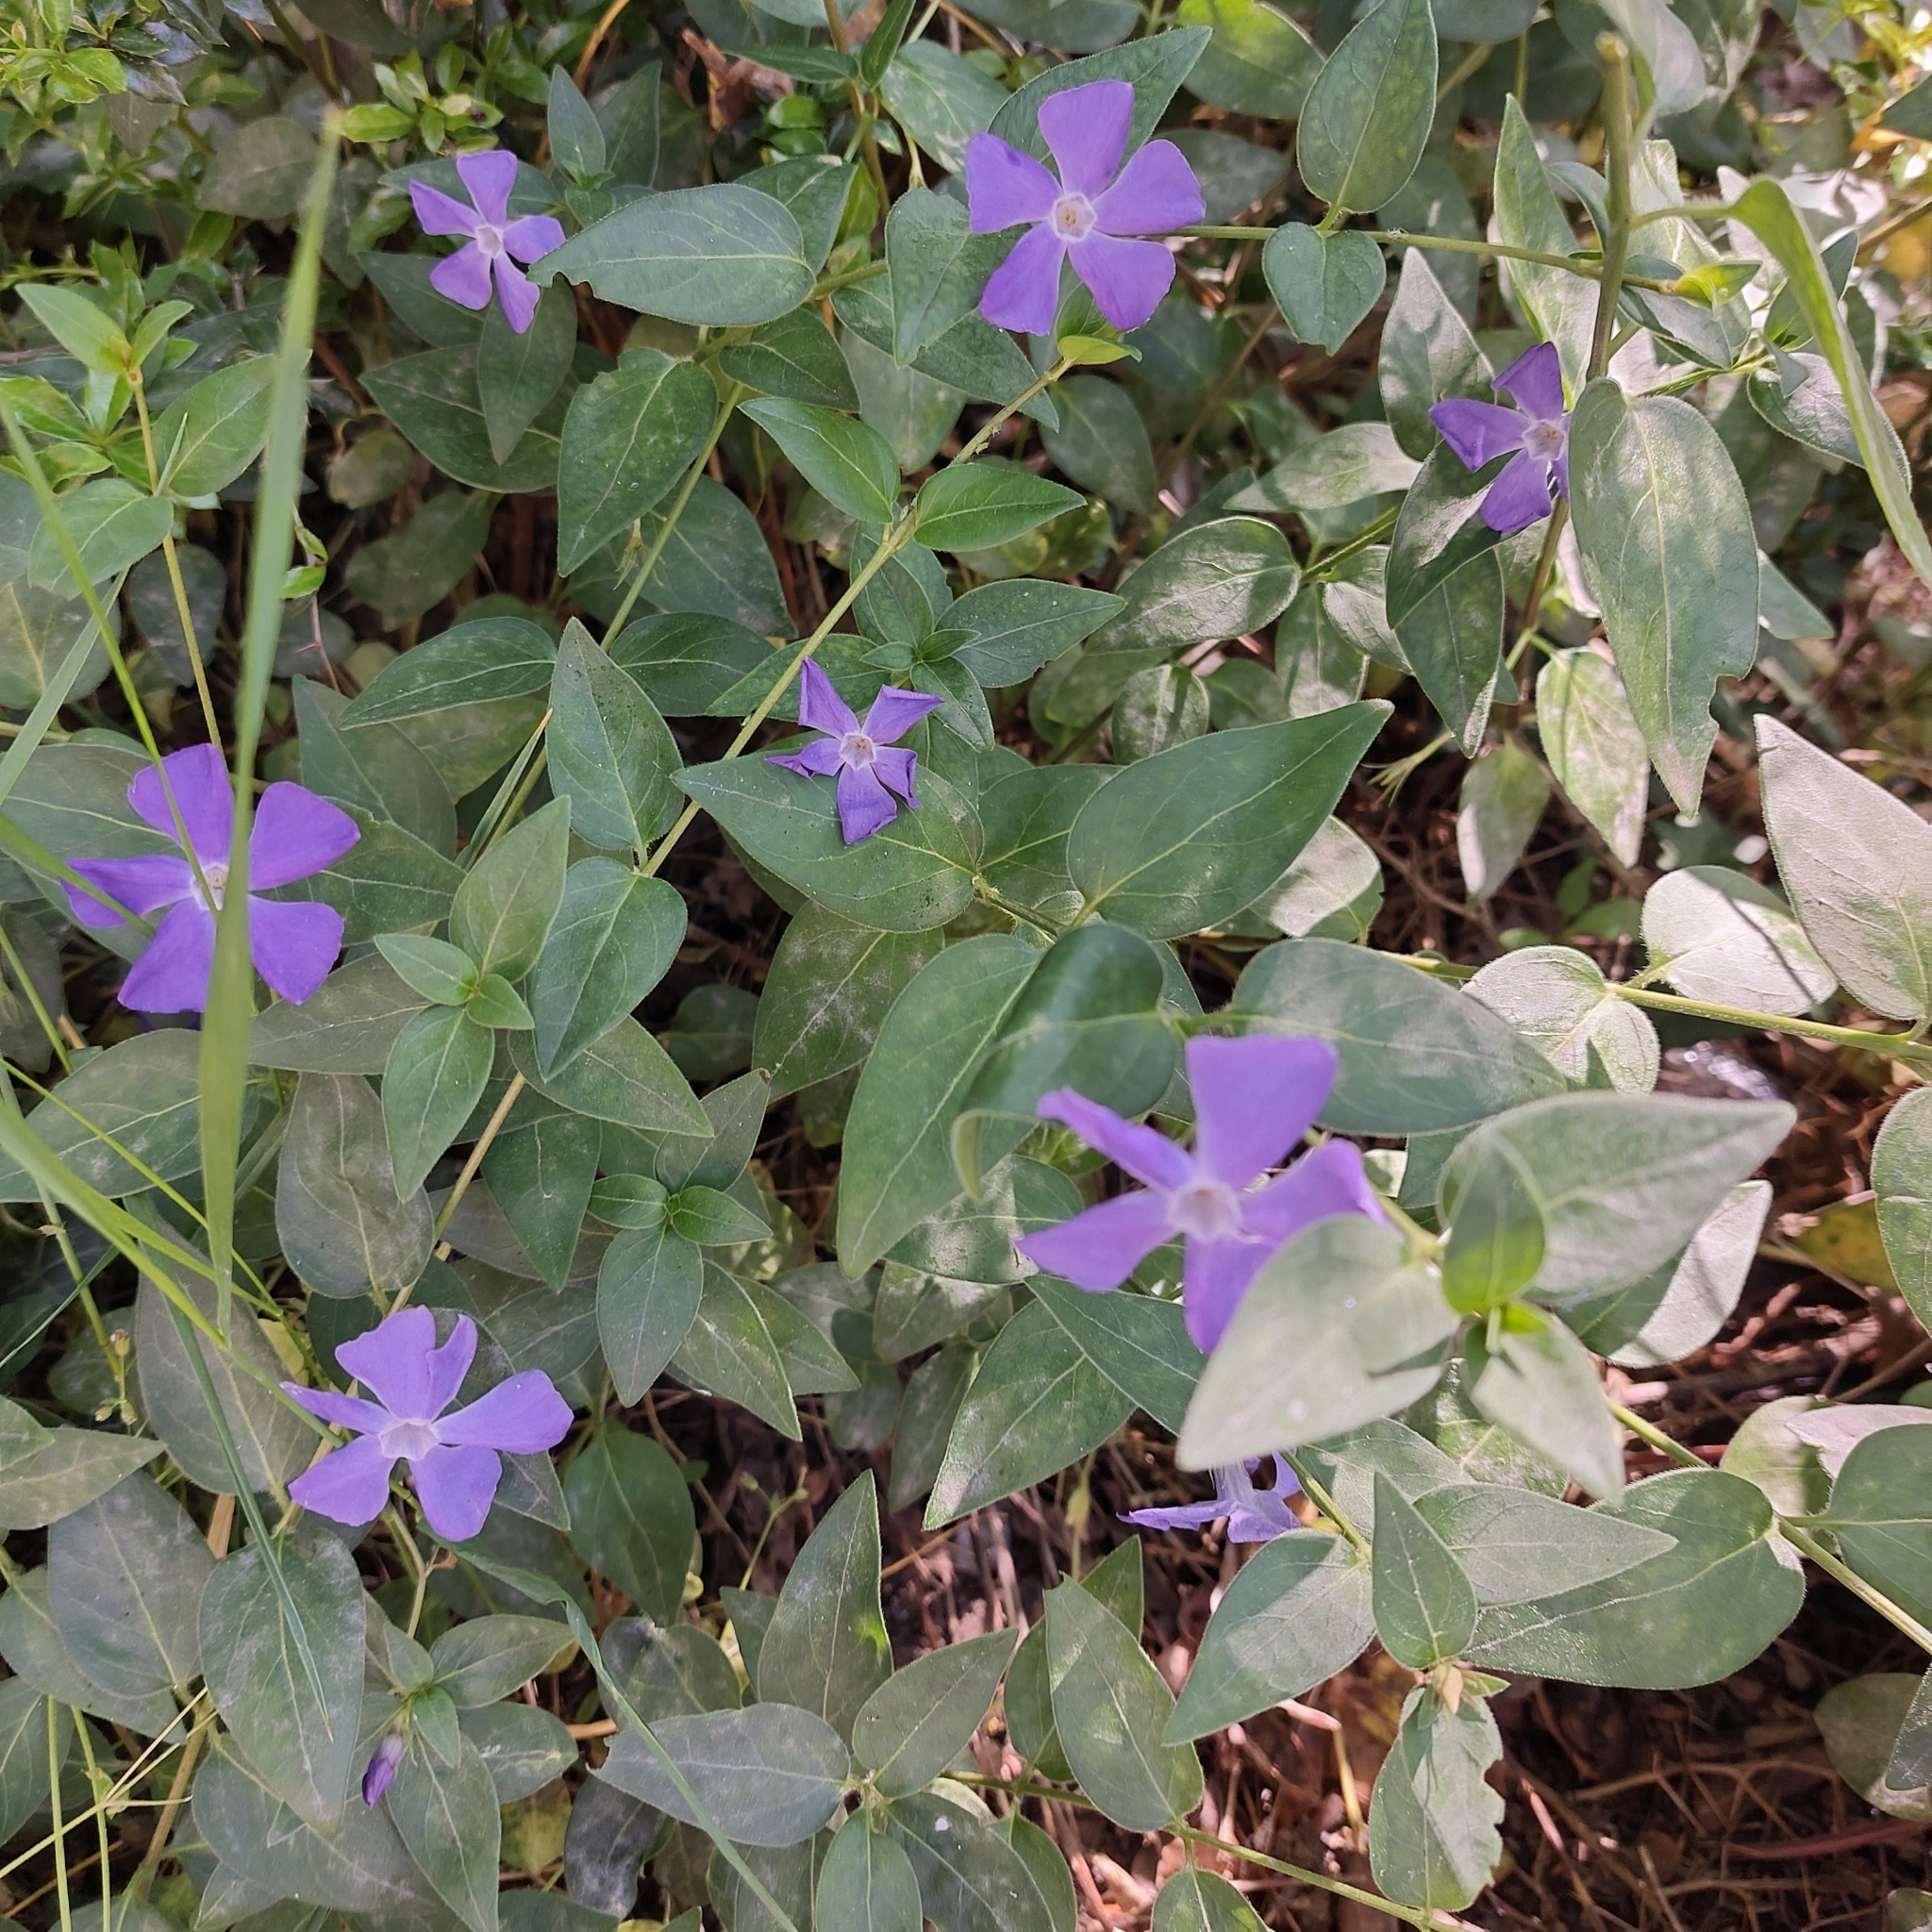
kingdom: Plantae
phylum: Tracheophyta
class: Magnoliopsida
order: Gentianales
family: Apocynaceae
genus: Vinca
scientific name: Vinca major
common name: Greater periwinkle
